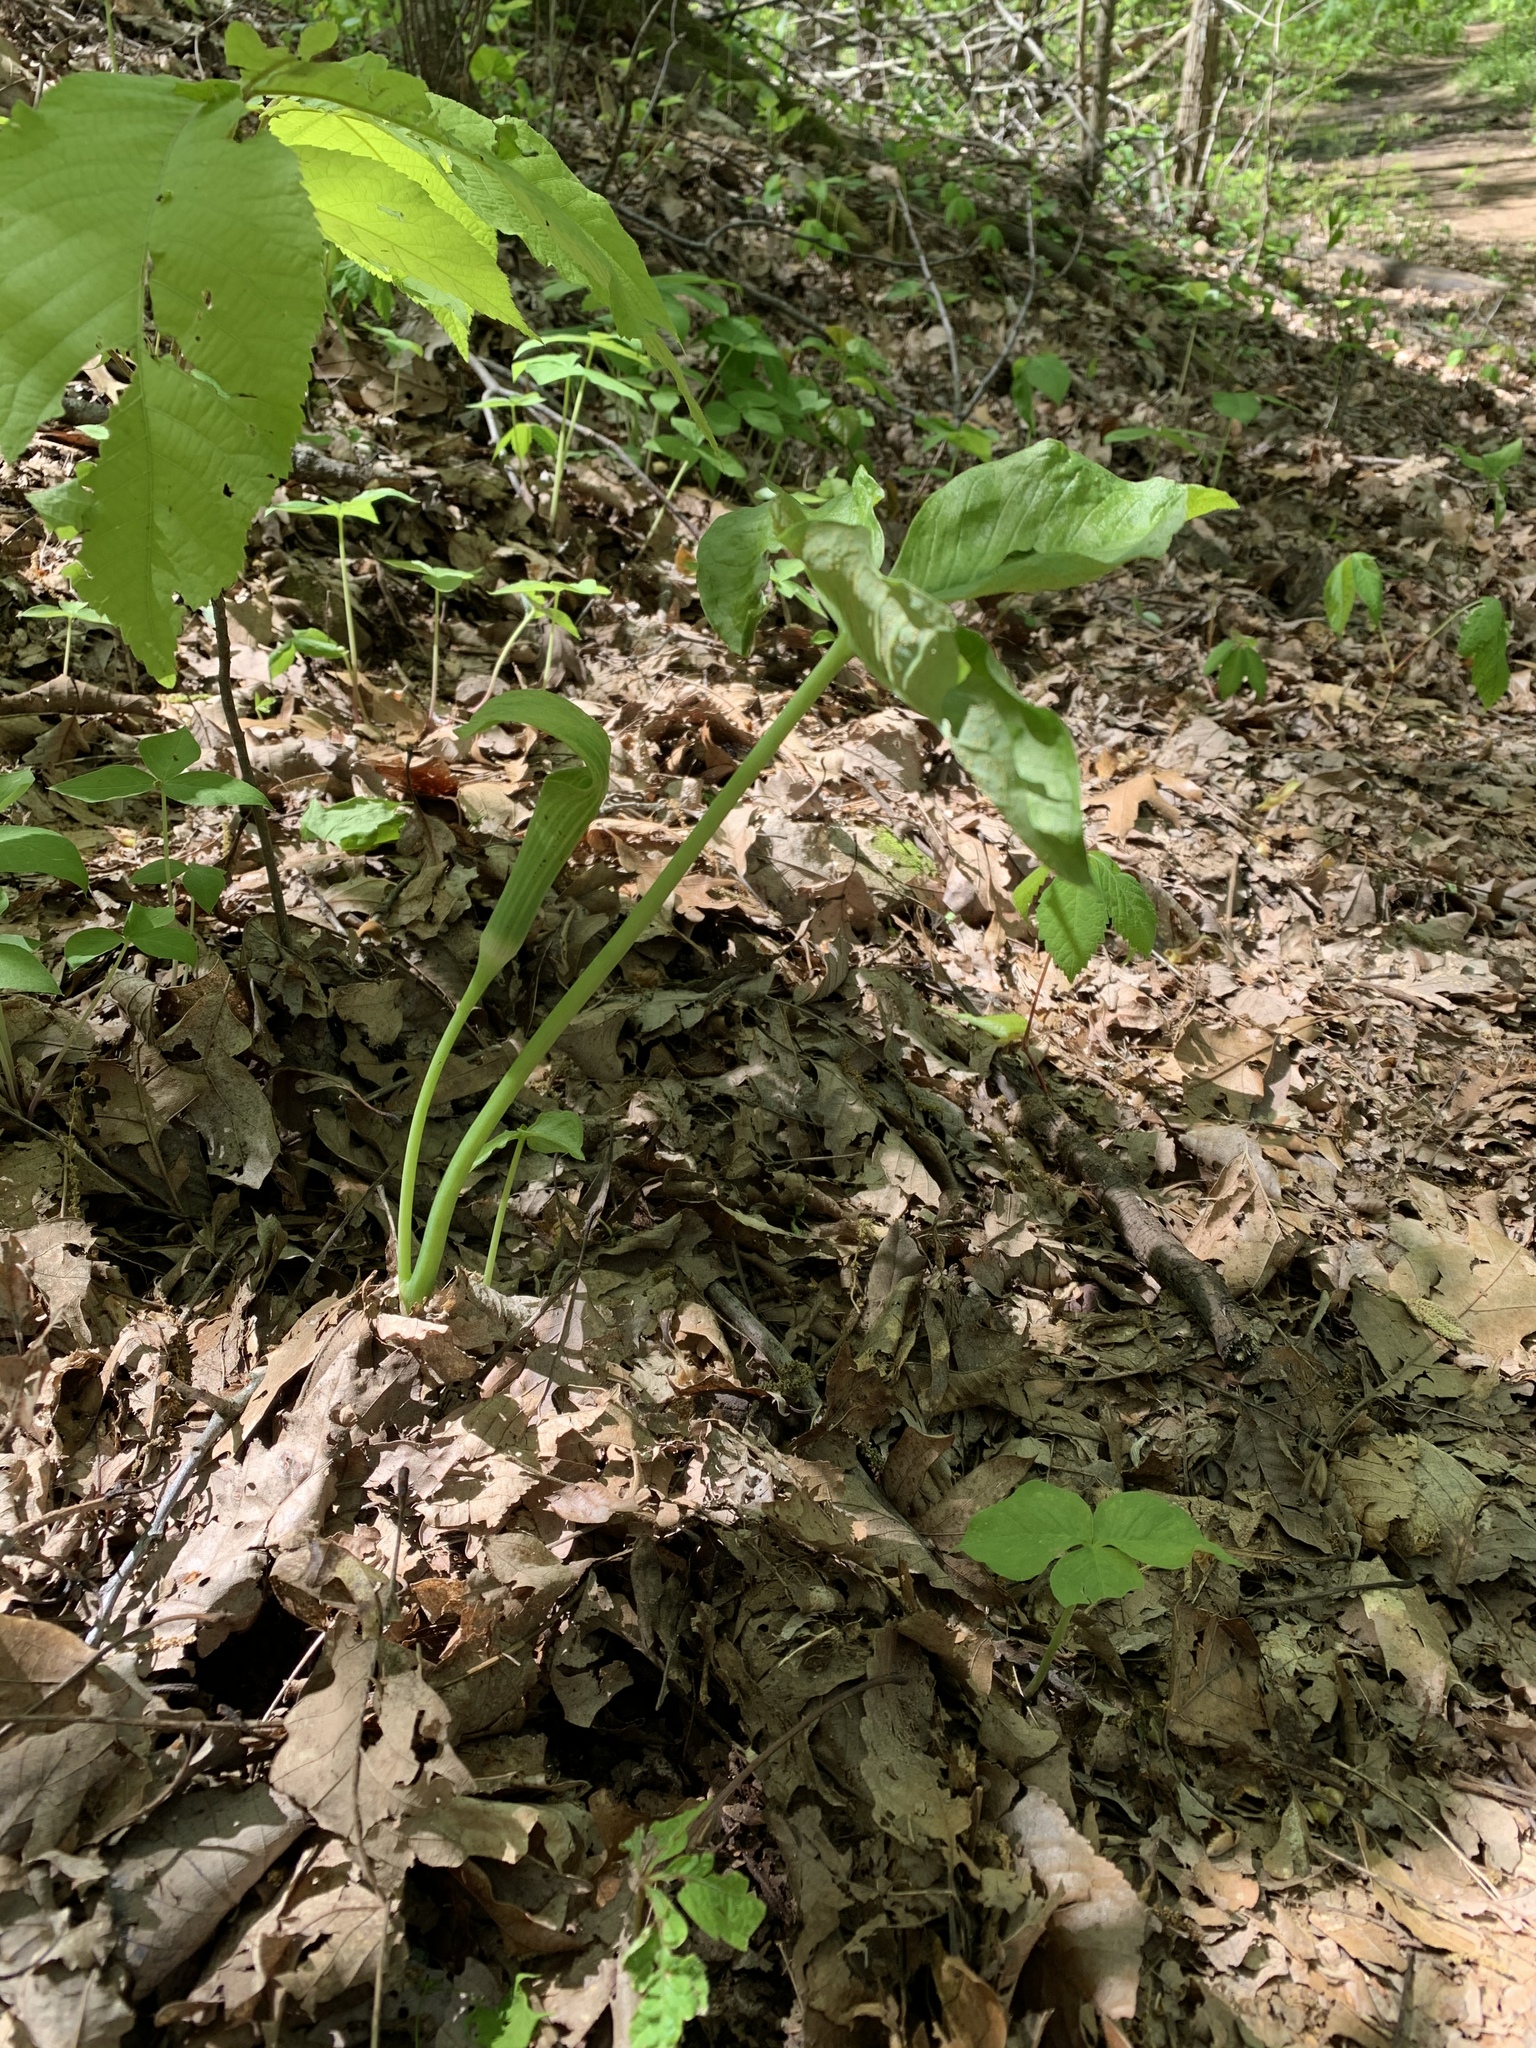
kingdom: Fungi
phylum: Basidiomycota
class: Pucciniomycetes
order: Pucciniales
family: Pucciniaceae
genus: Uromyces
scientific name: Uromyces ari-triphylli
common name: Jack-in-the-pulpit rust
